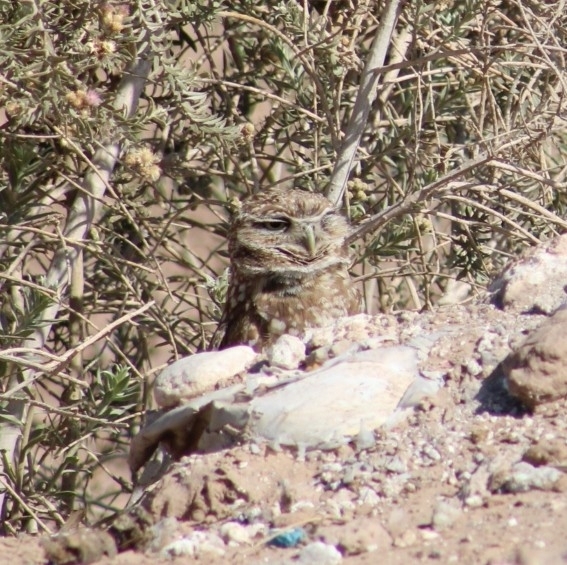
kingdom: Animalia
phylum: Chordata
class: Aves
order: Strigiformes
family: Strigidae
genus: Athene
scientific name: Athene cunicularia
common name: Burrowing owl
